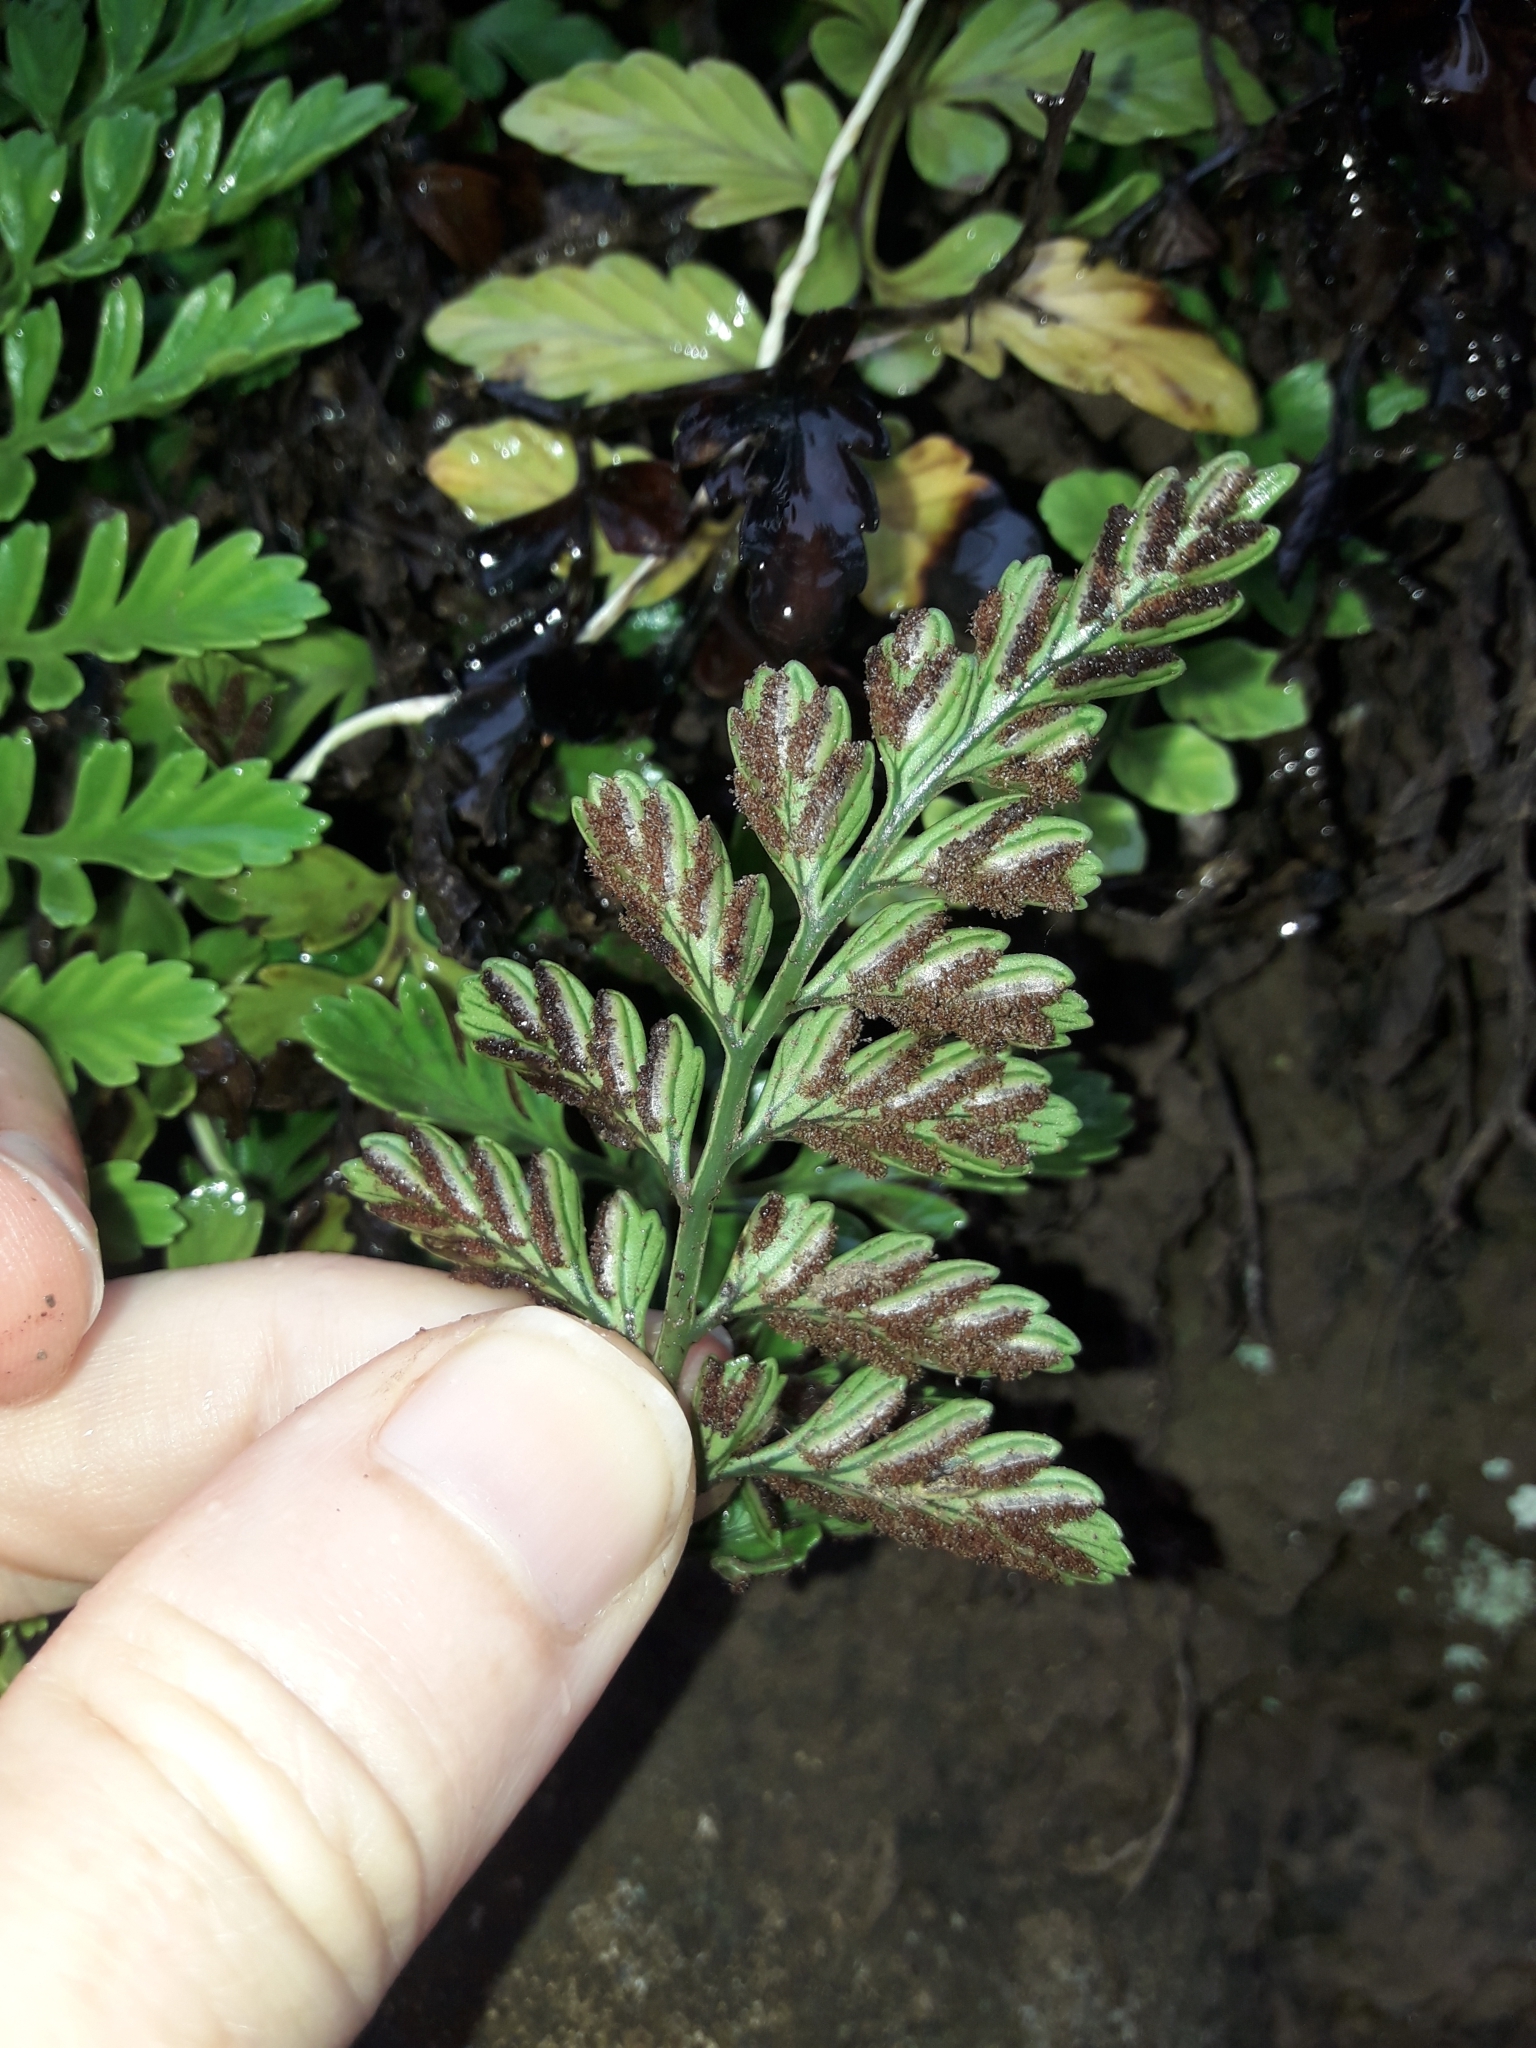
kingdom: Plantae
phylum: Tracheophyta
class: Polypodiopsida
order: Polypodiales
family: Aspleniaceae
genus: Asplenium
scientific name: Asplenium difforme
